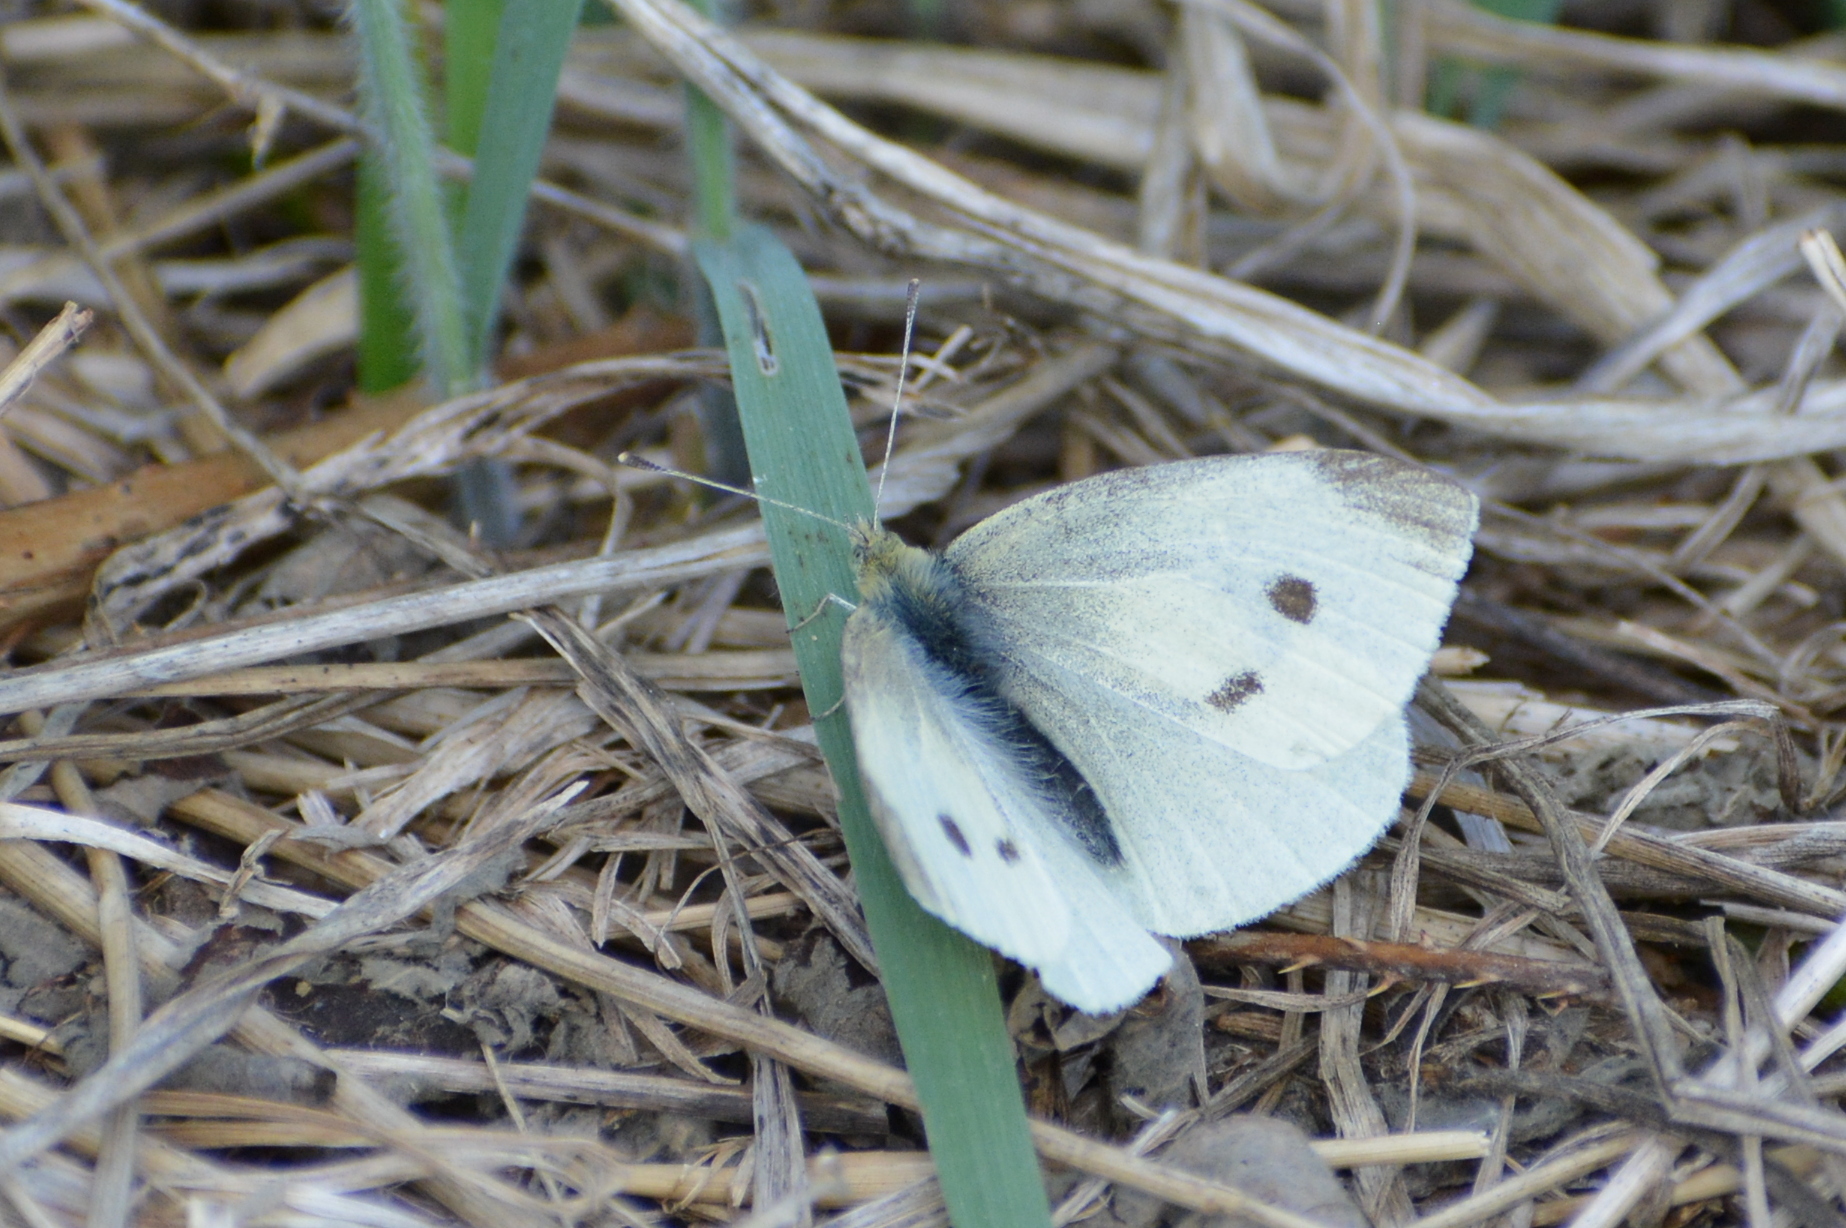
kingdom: Animalia
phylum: Arthropoda
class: Insecta
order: Lepidoptera
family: Pieridae
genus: Pieris
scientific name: Pieris rapae
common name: Small white
